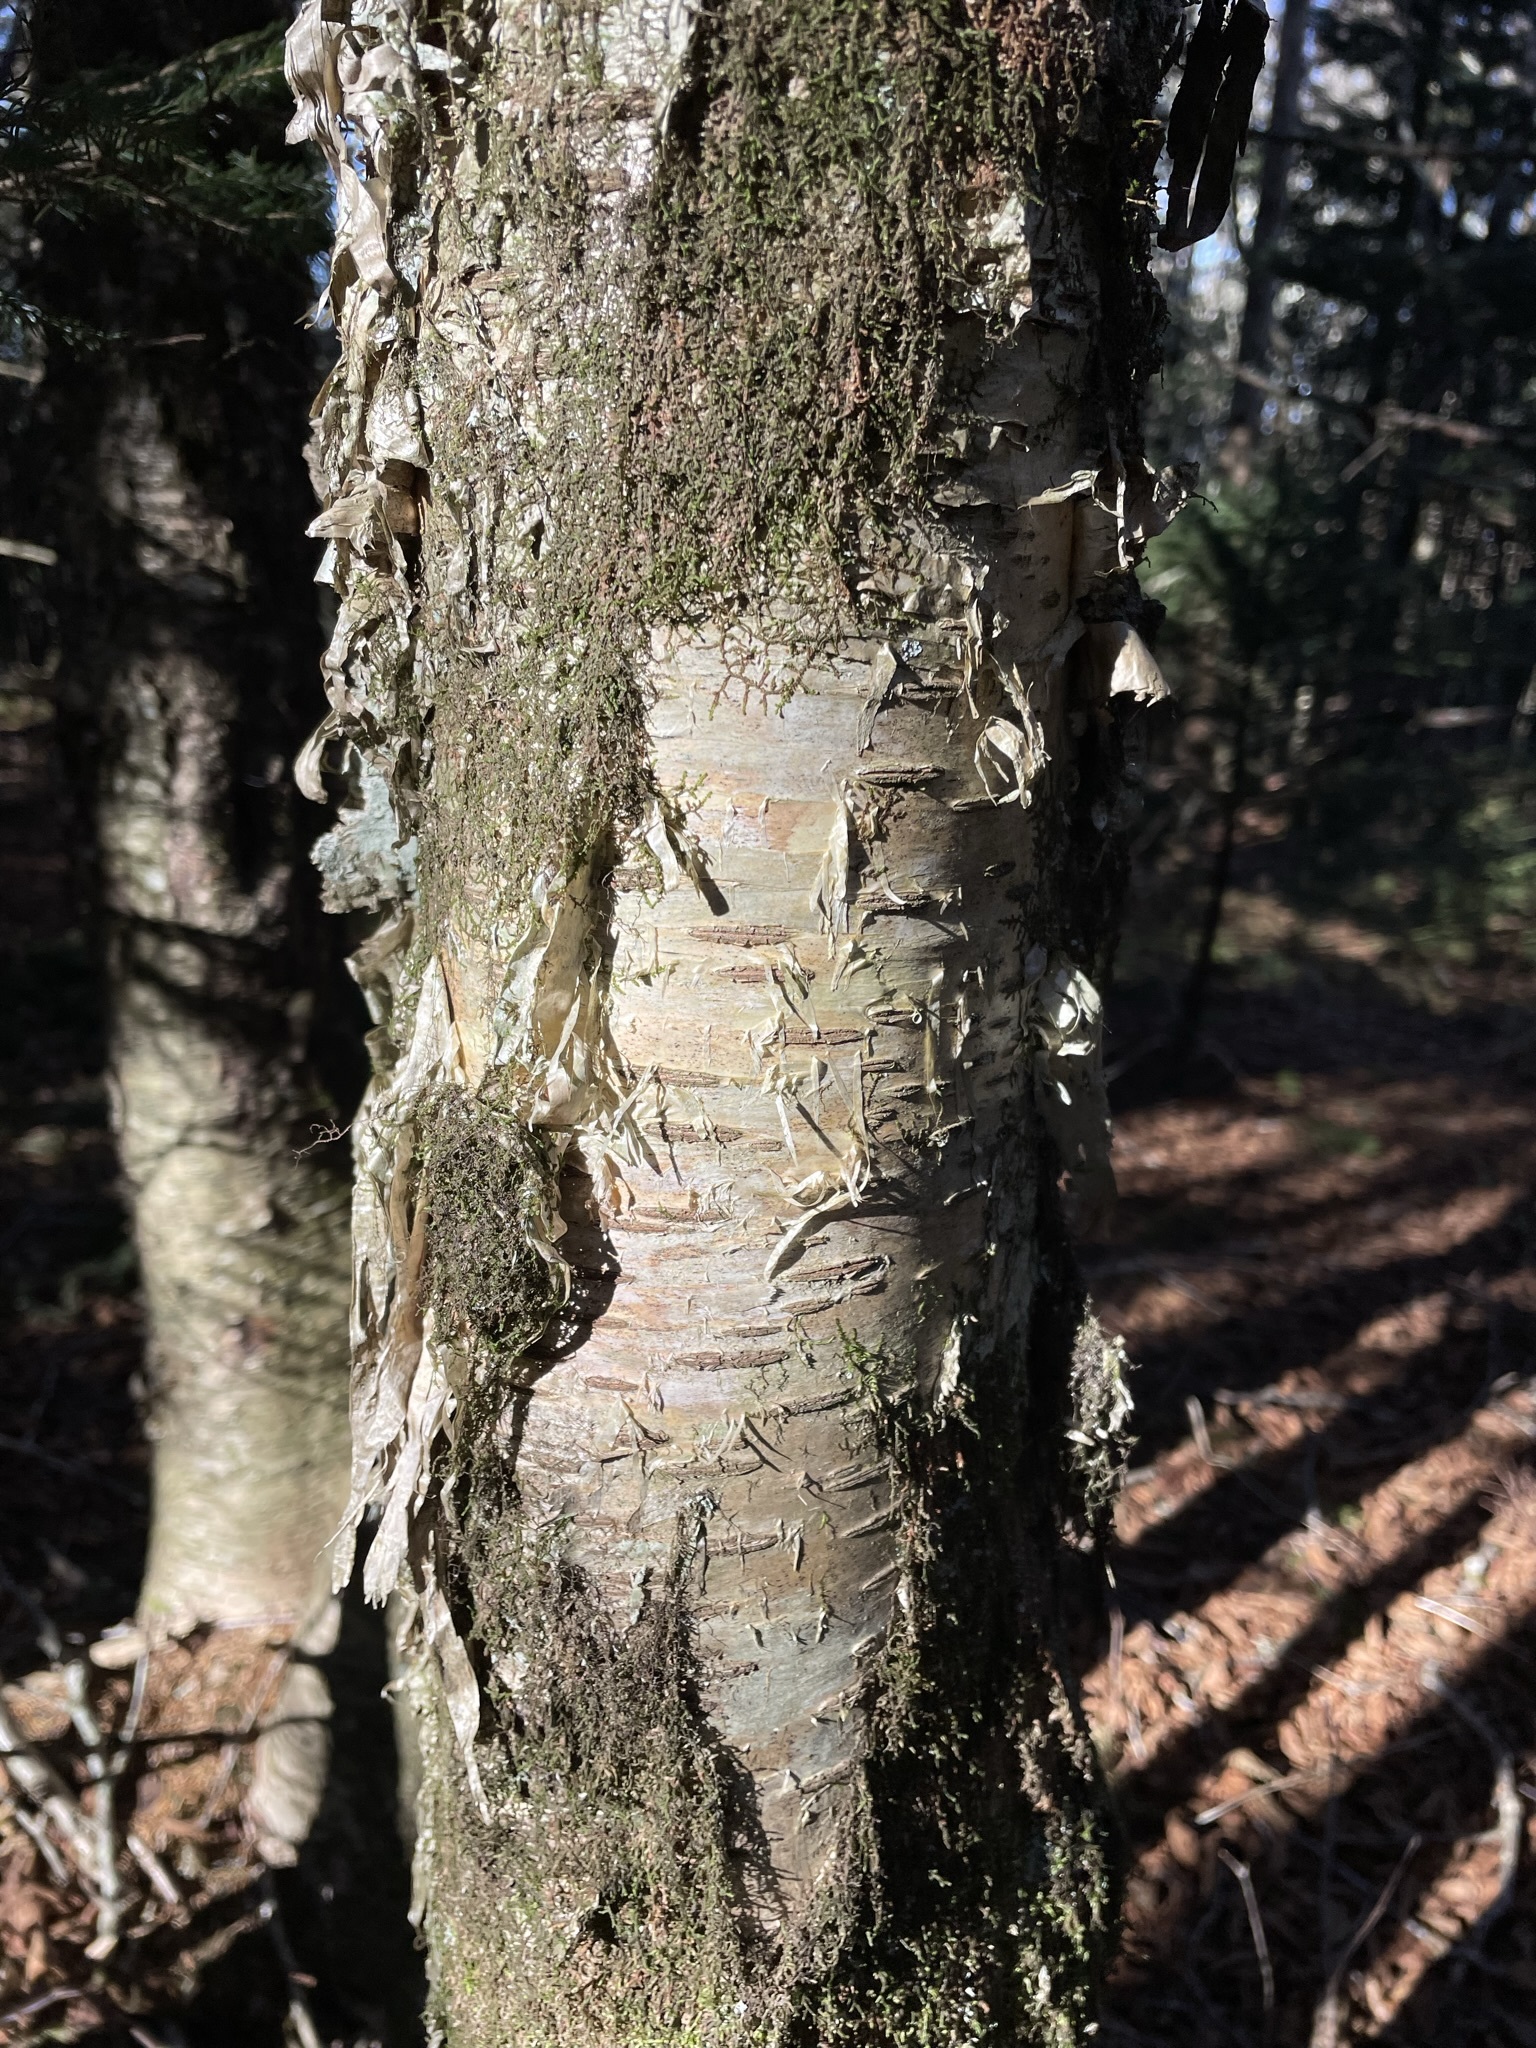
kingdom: Plantae
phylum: Tracheophyta
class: Magnoliopsida
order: Fagales
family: Betulaceae
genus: Betula
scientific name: Betula alleghaniensis
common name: Yellow birch
